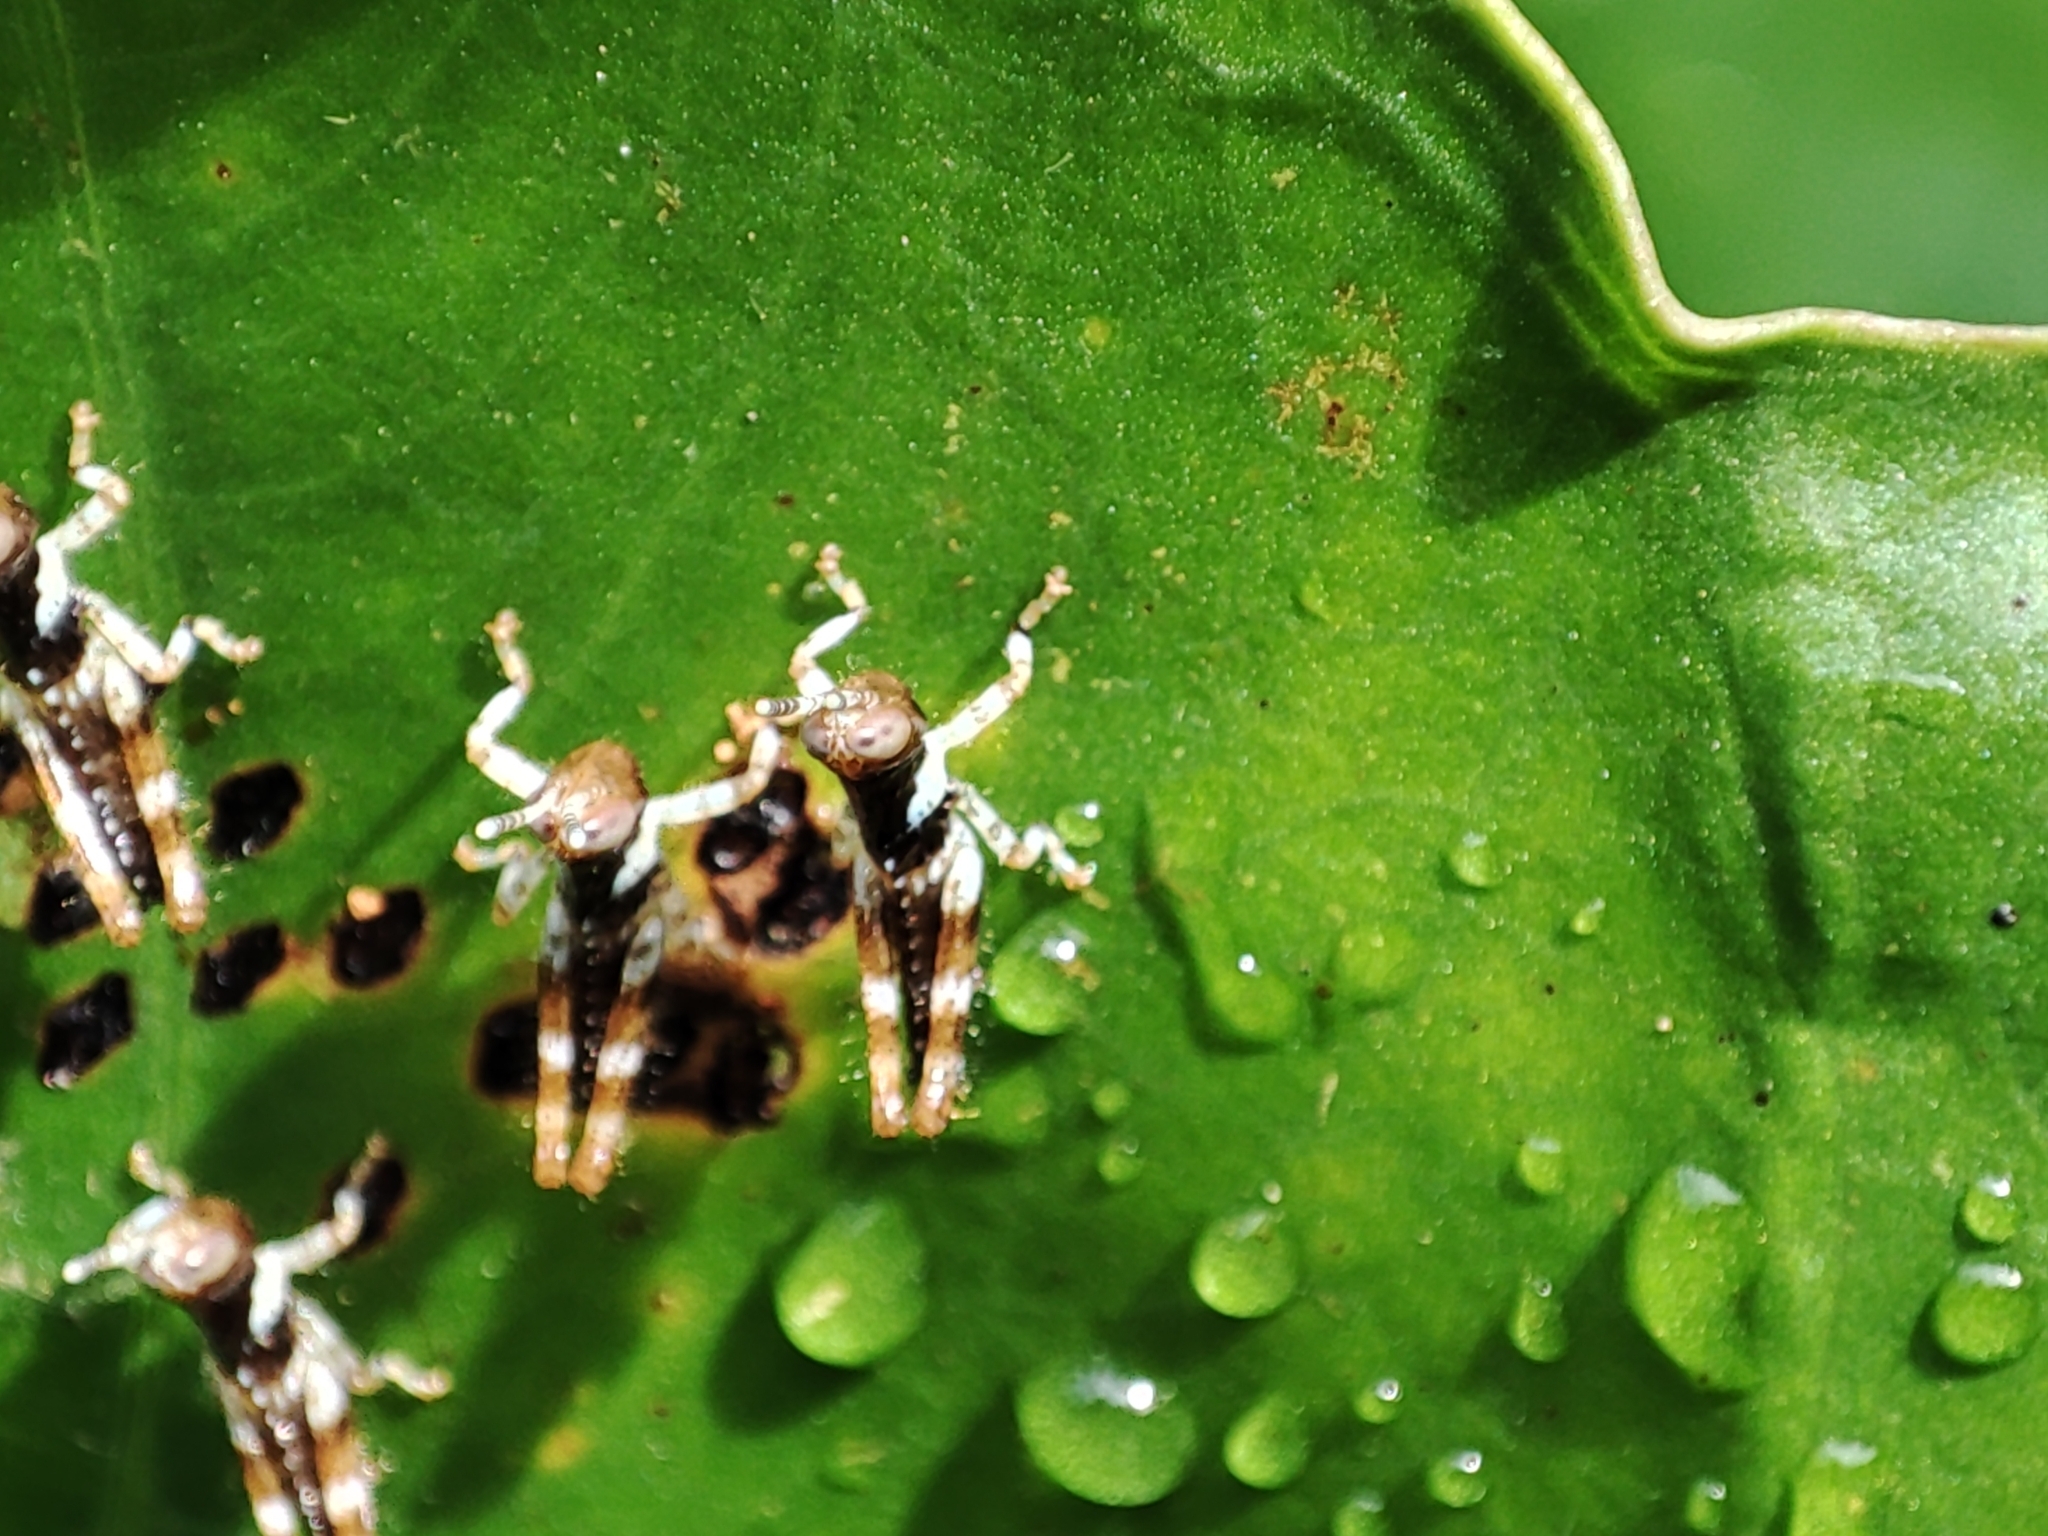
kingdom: Animalia
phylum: Arthropoda
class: Insecta
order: Orthoptera
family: Acrididae
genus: Gesonula
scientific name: Gesonula mundata
